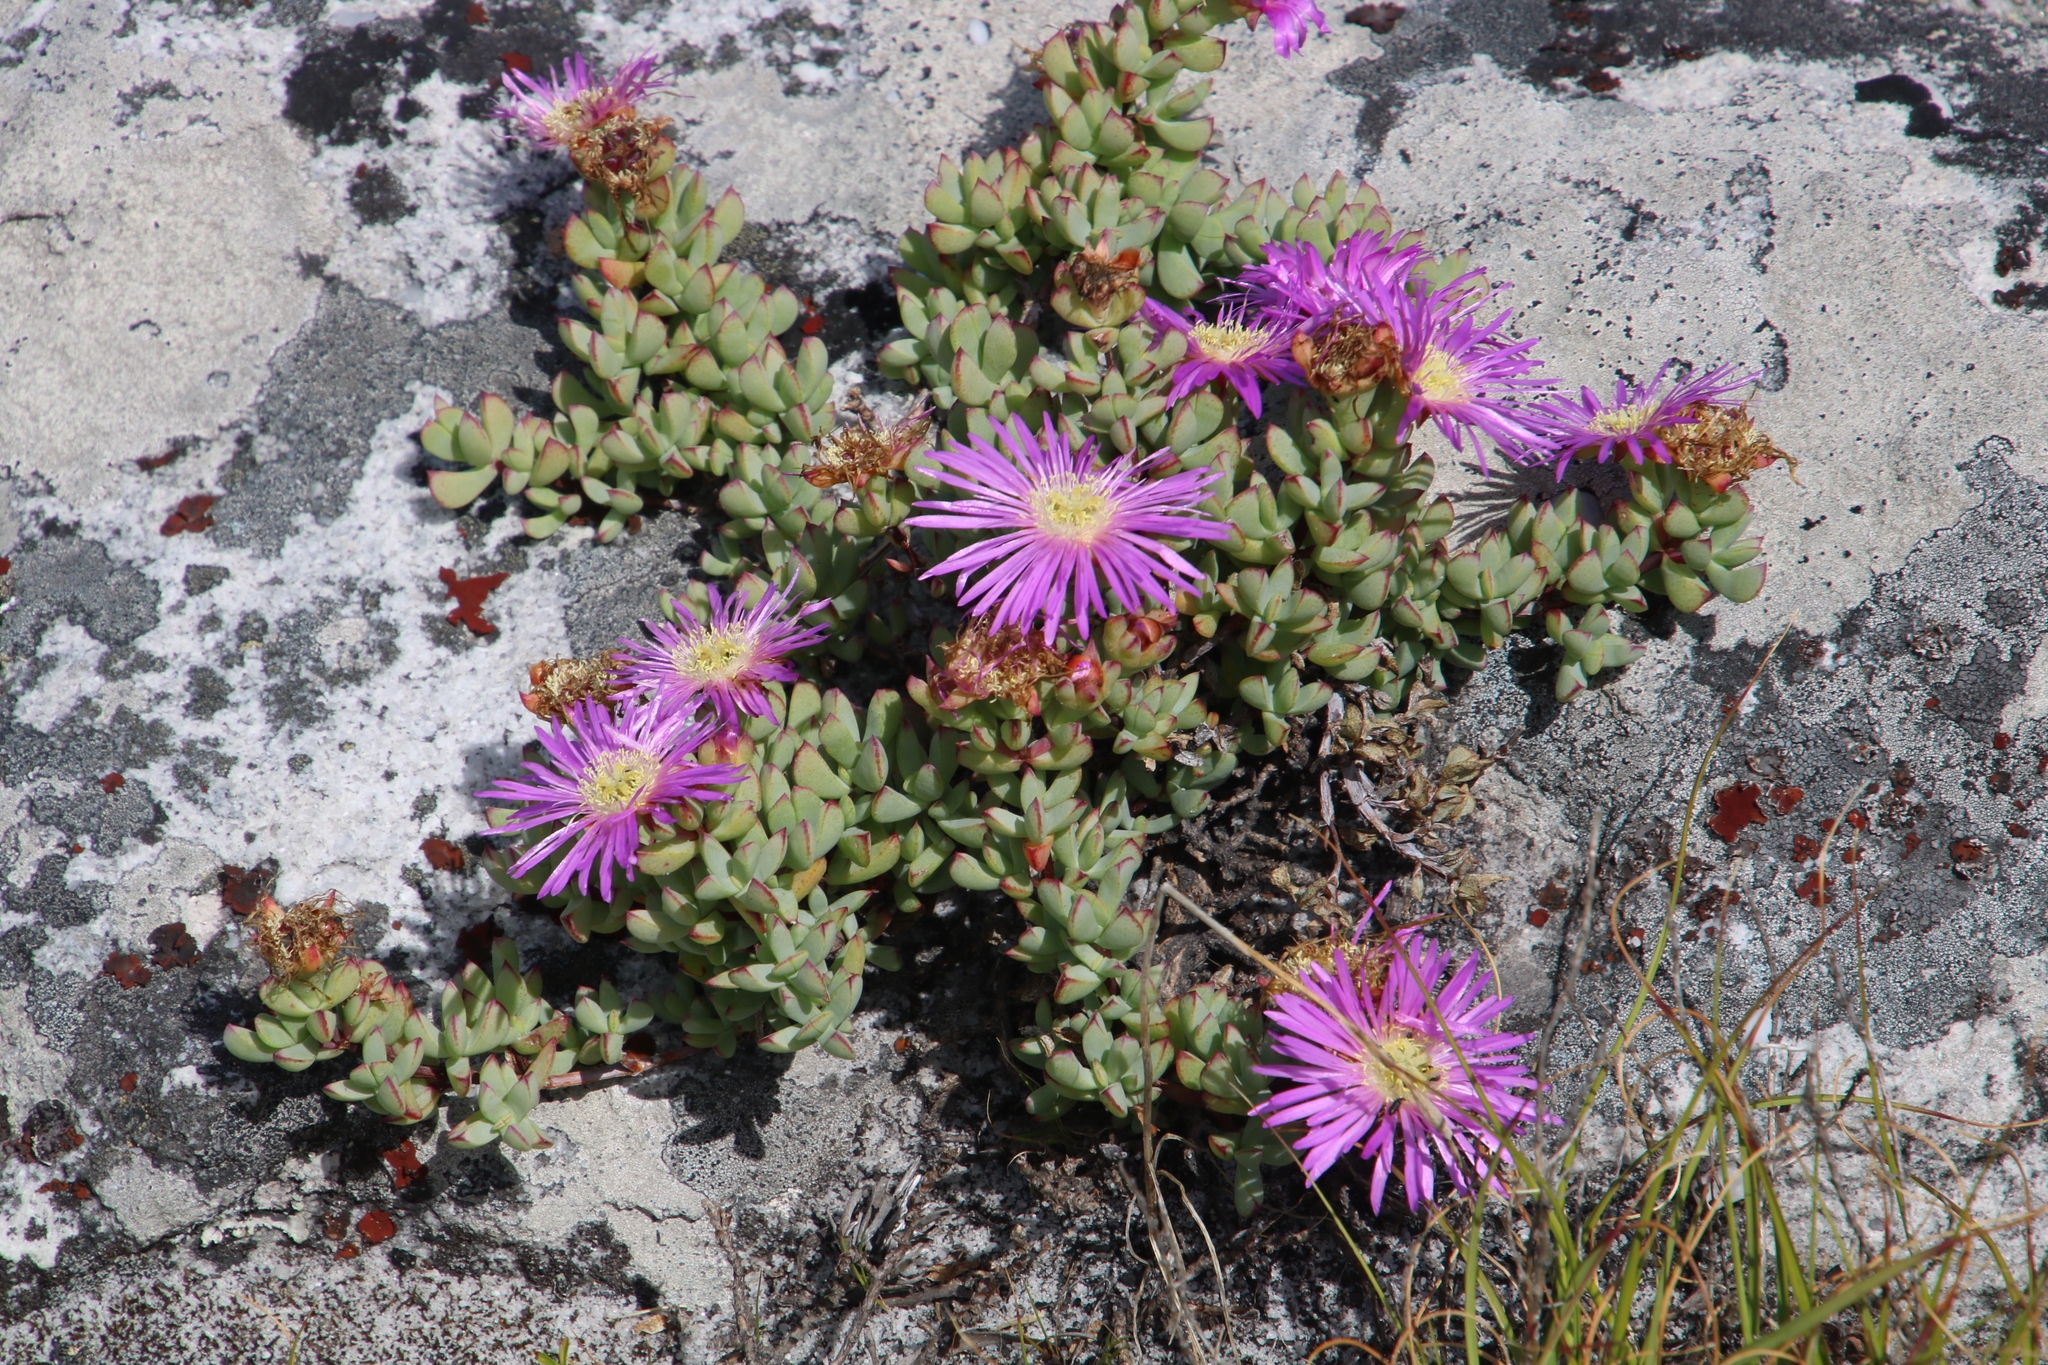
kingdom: Plantae
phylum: Tracheophyta
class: Magnoliopsida
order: Caryophyllales
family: Aizoaceae
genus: Oscularia
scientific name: Oscularia falciformis
